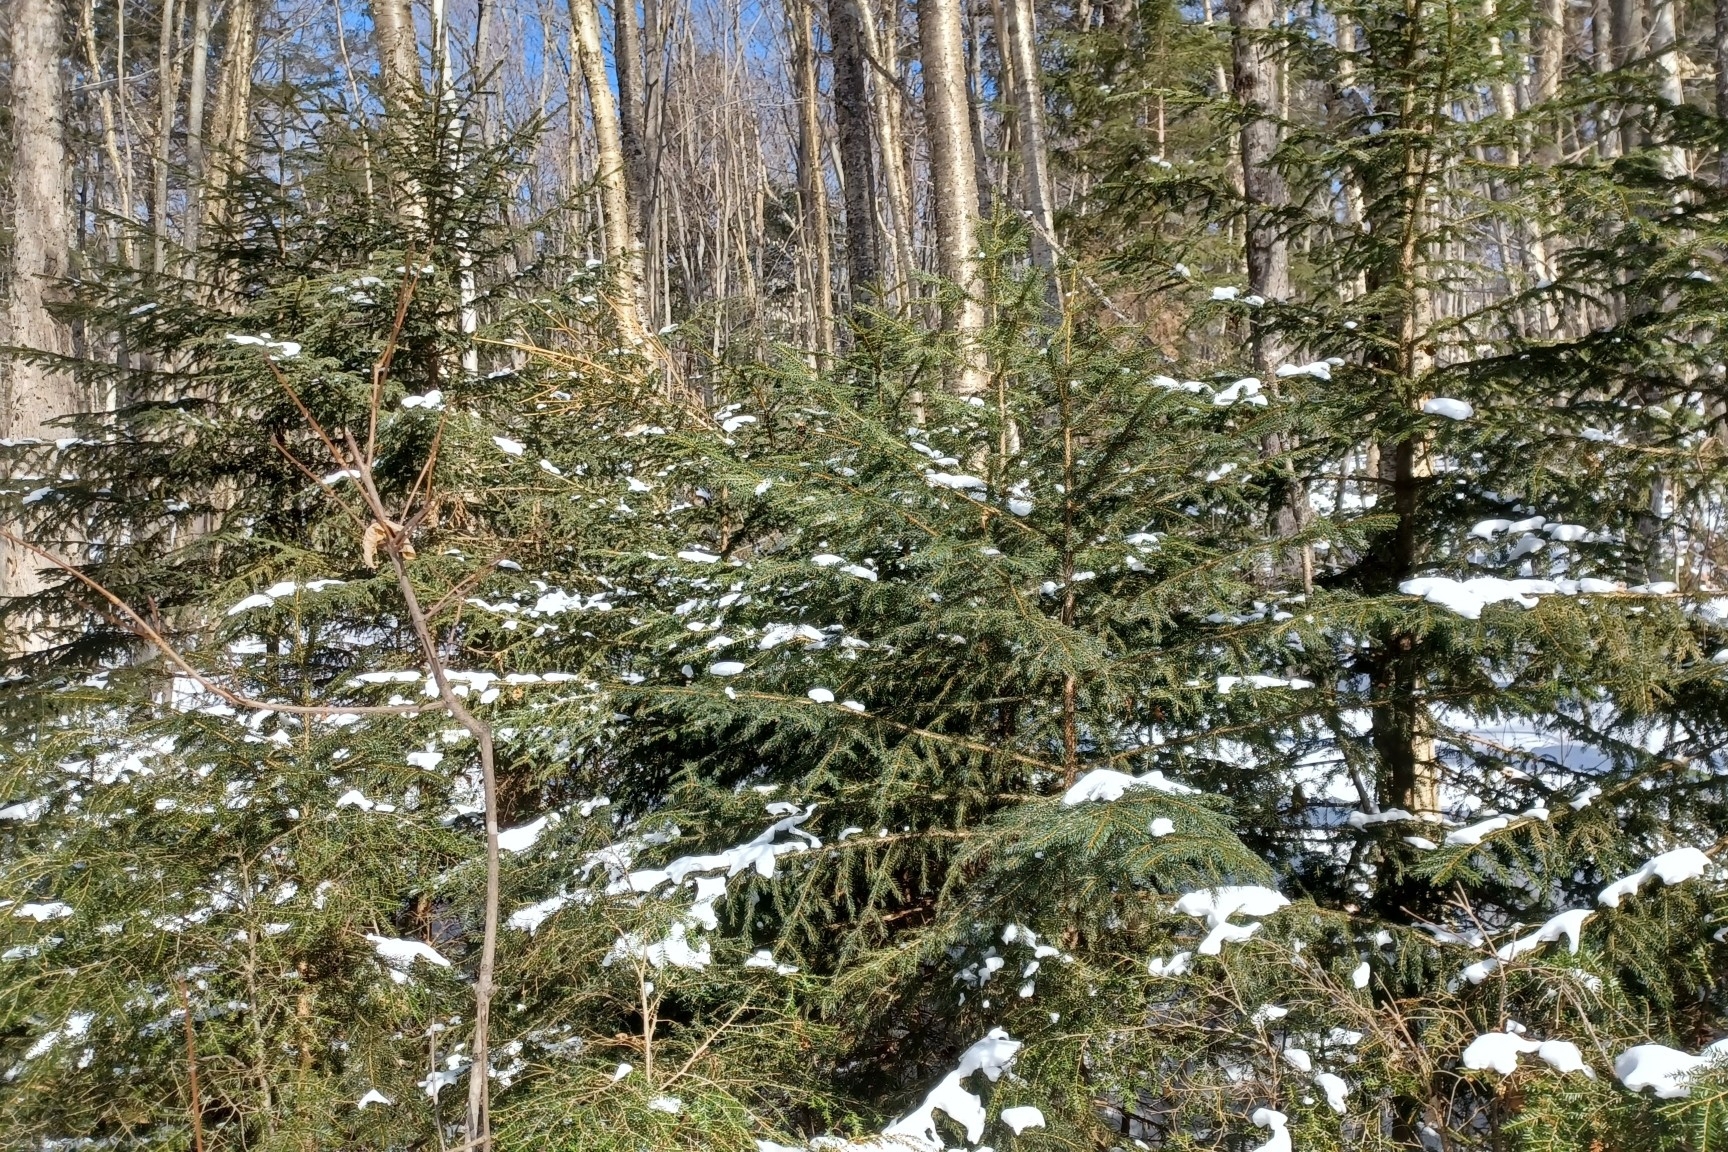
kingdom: Plantae
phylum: Tracheophyta
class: Pinopsida
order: Pinales
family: Pinaceae
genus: Picea
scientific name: Picea rubens
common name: Red spruce
